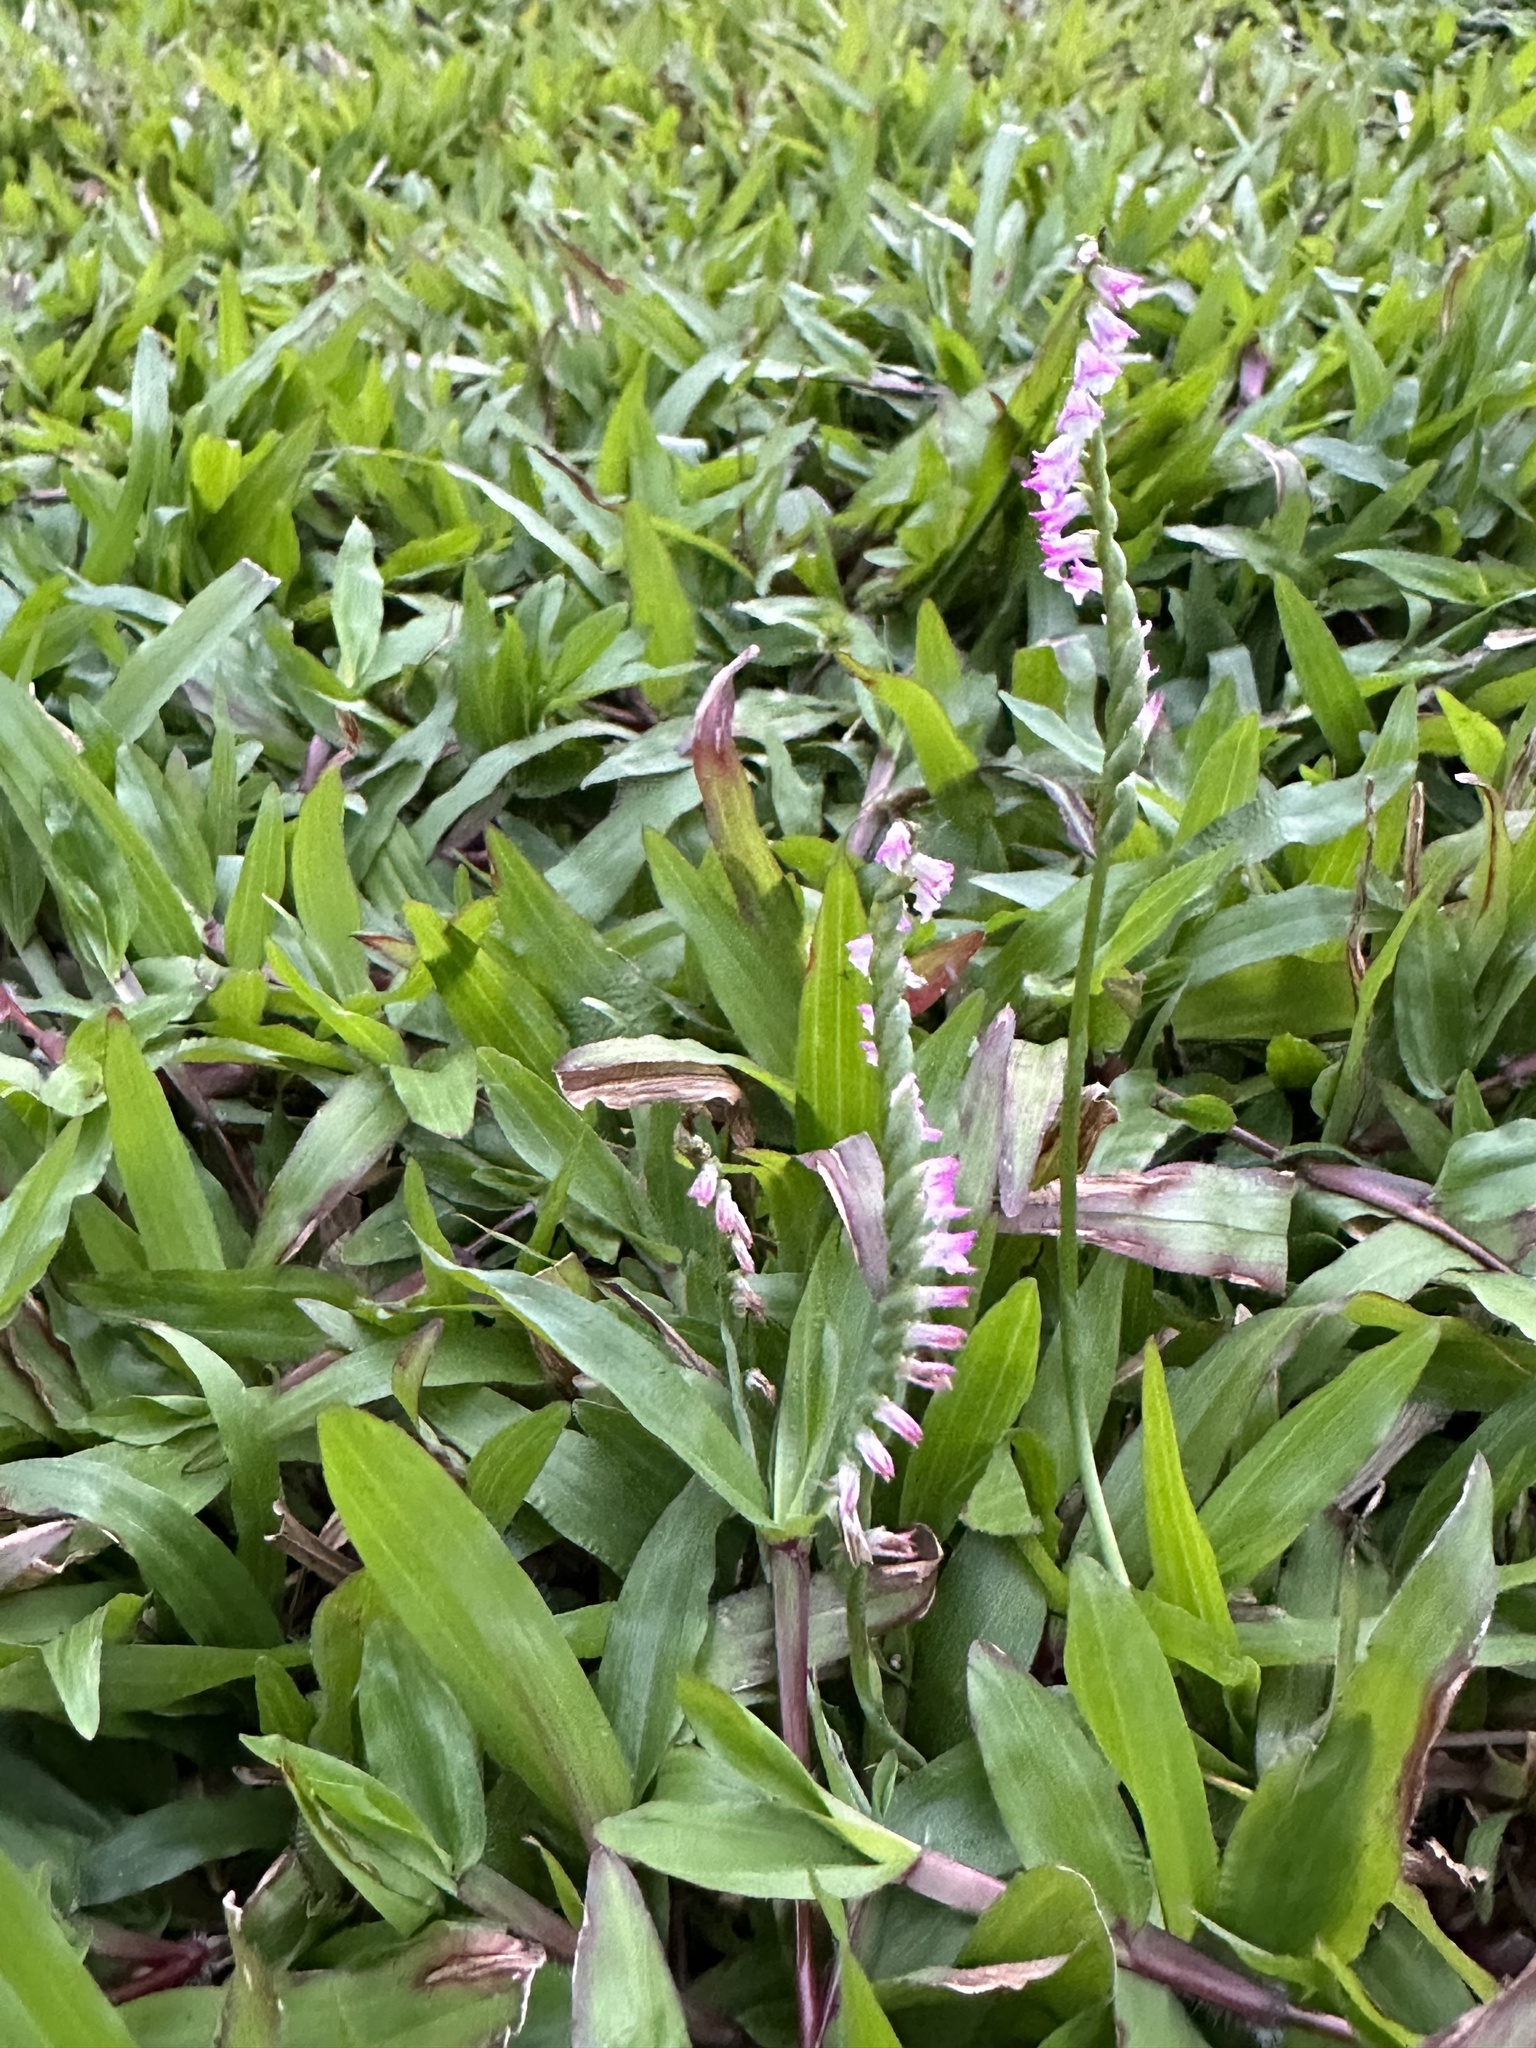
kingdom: Plantae
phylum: Tracheophyta
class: Liliopsida
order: Asparagales
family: Orchidaceae
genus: Spiranthes
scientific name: Spiranthes sinensis
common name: Chinese spiranthes
